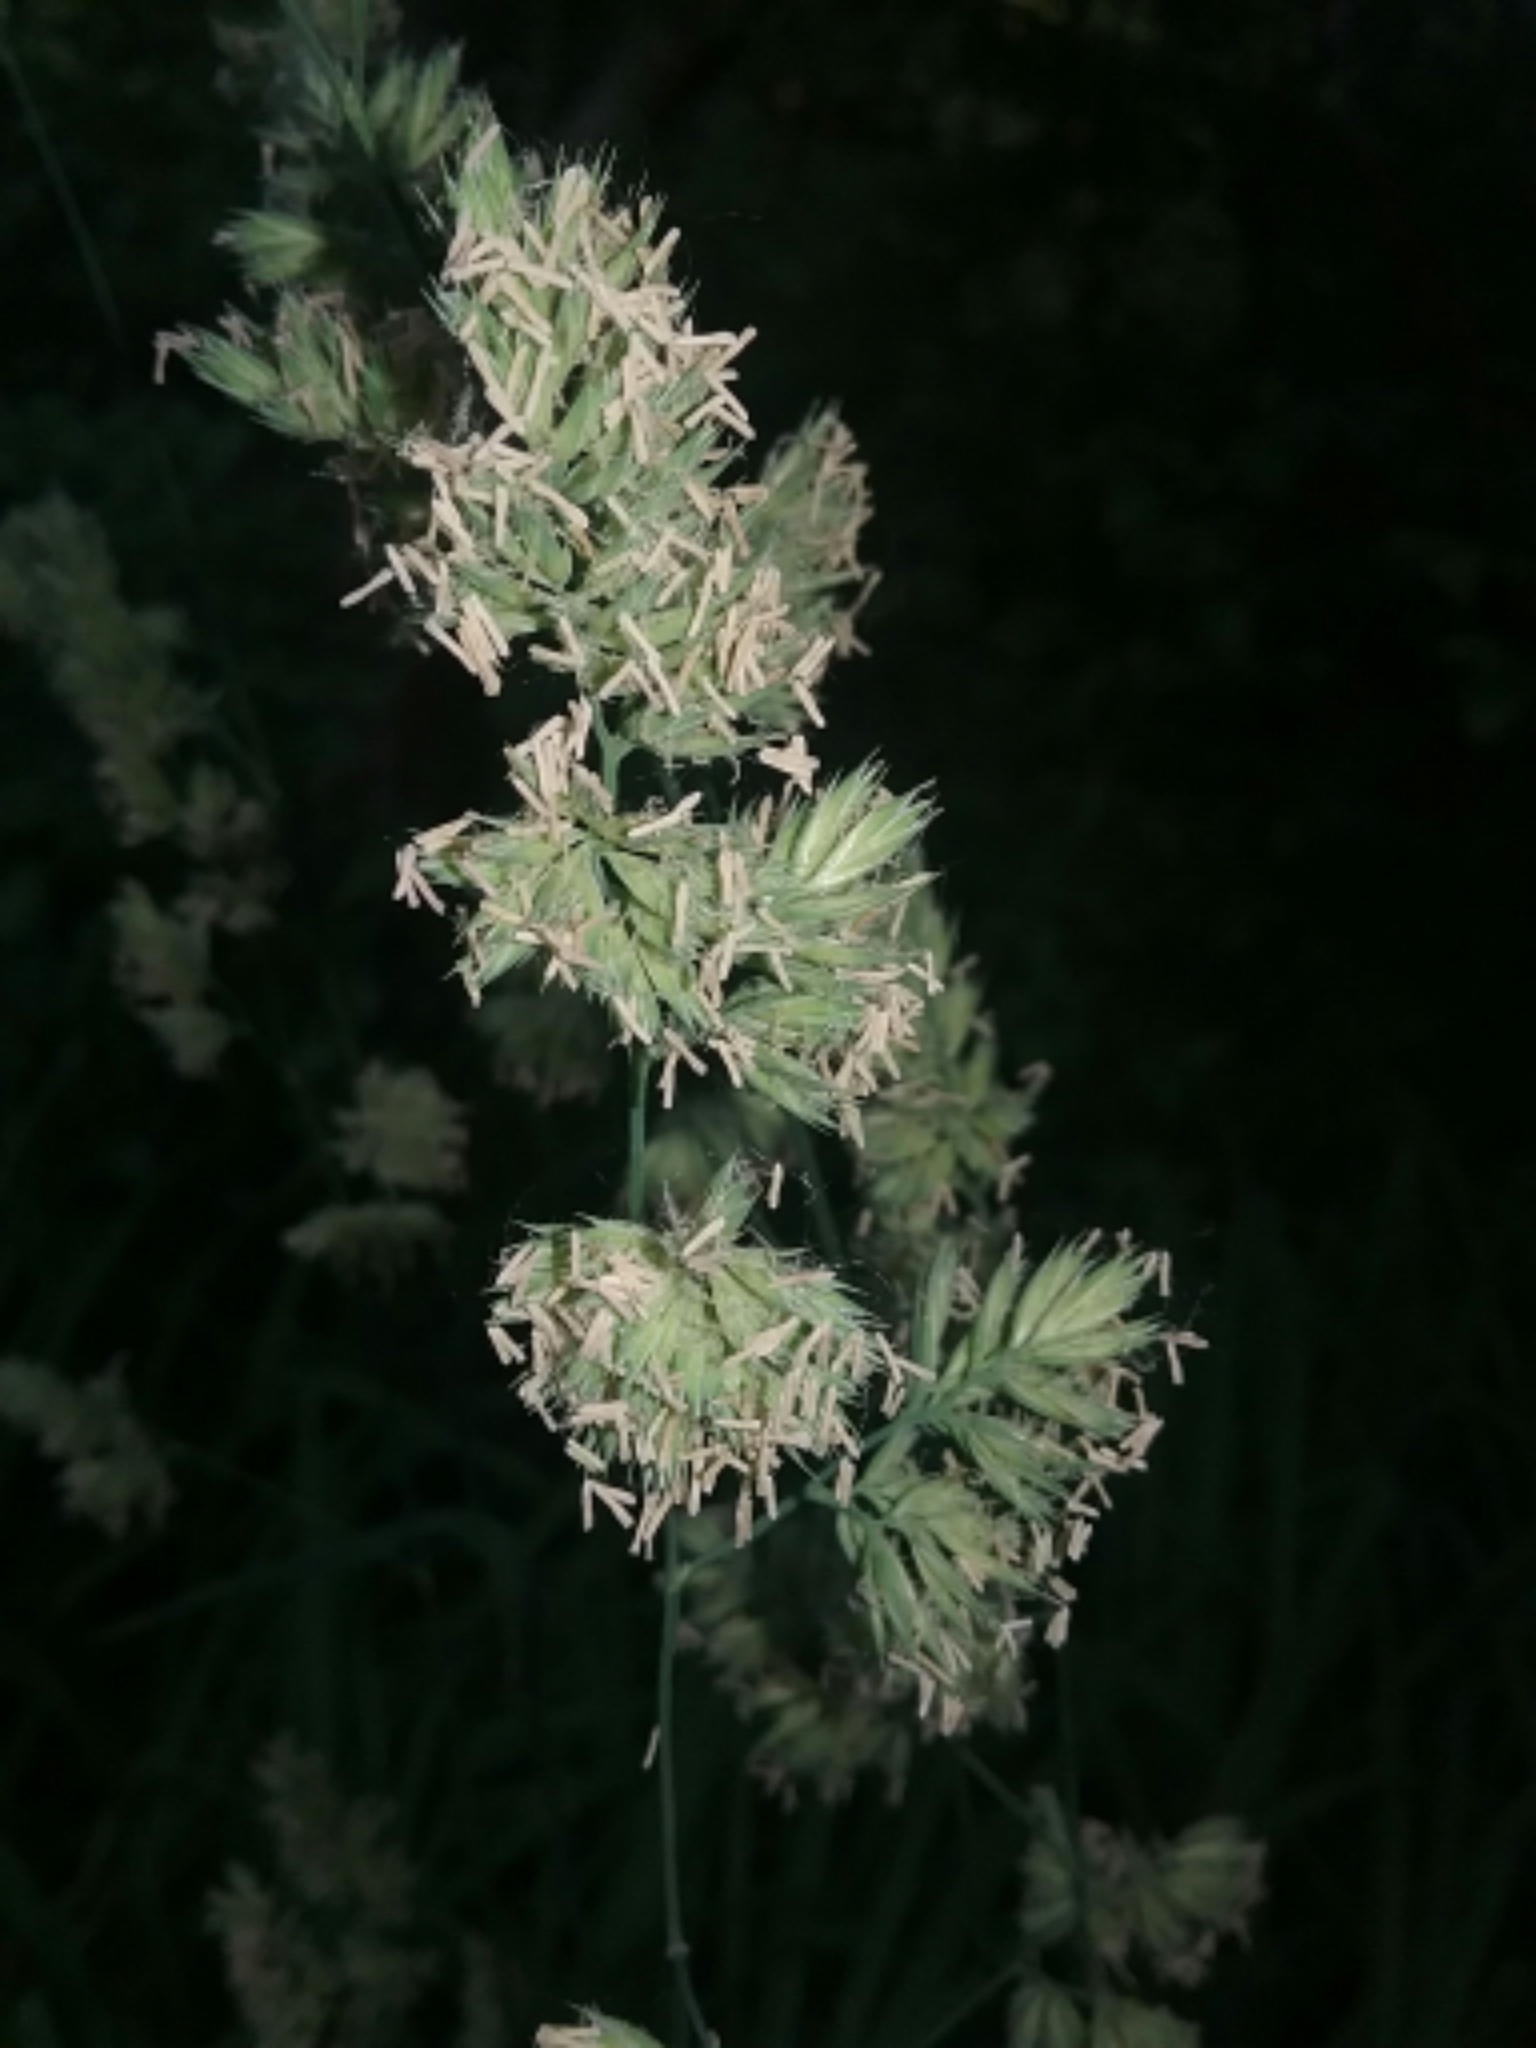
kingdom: Plantae
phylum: Tracheophyta
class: Liliopsida
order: Poales
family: Poaceae
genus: Dactylis
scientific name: Dactylis glomerata
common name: Orchardgrass
